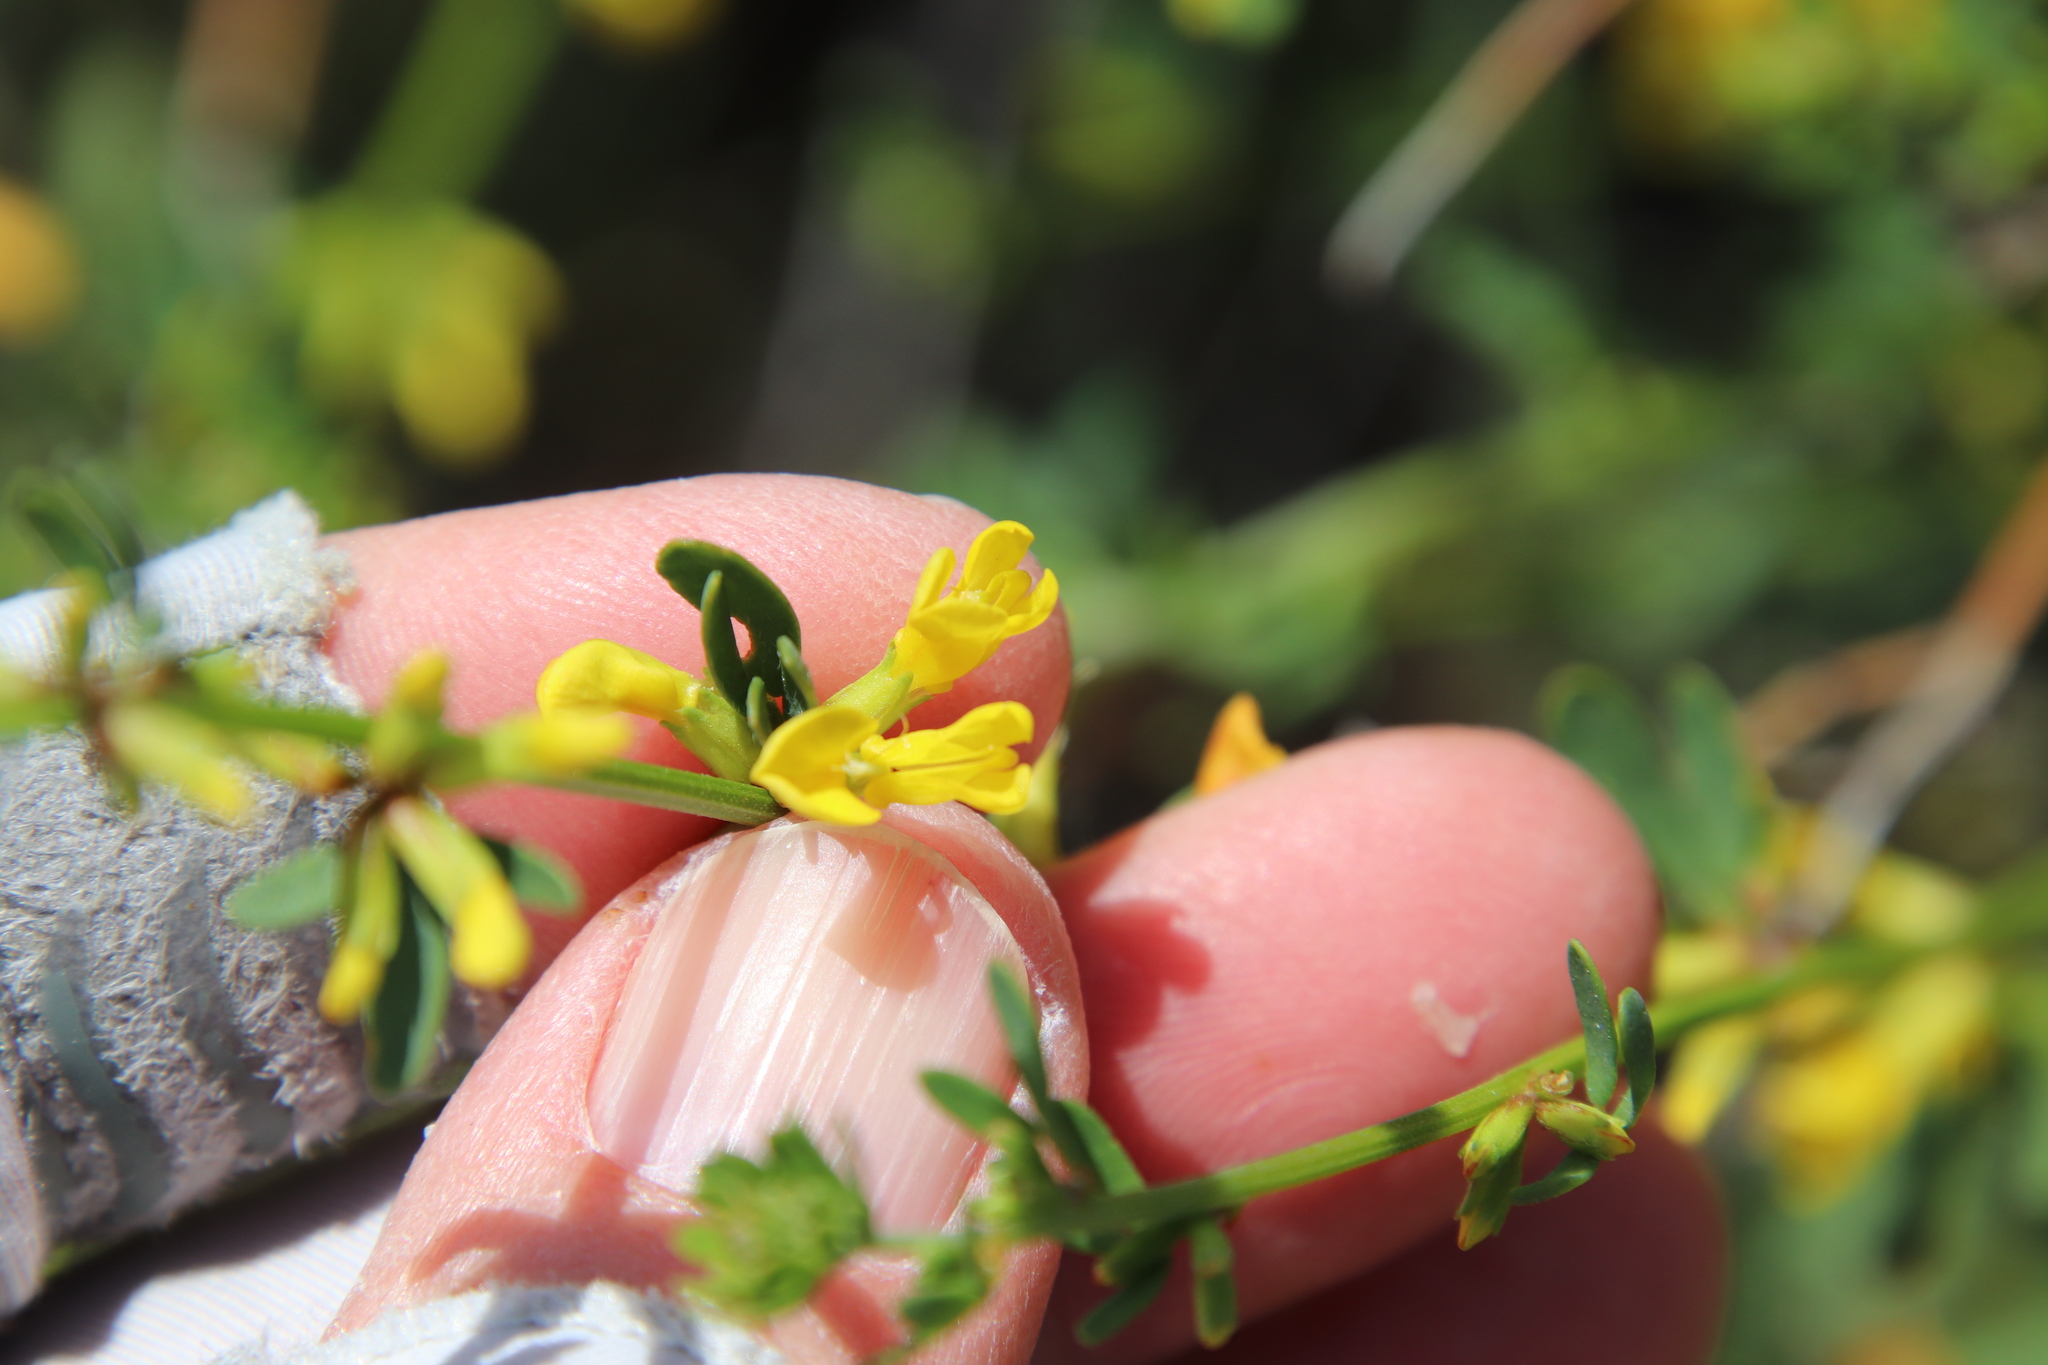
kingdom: Plantae
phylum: Tracheophyta
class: Magnoliopsida
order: Fabales
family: Fabaceae
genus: Acmispon
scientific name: Acmispon glaber
